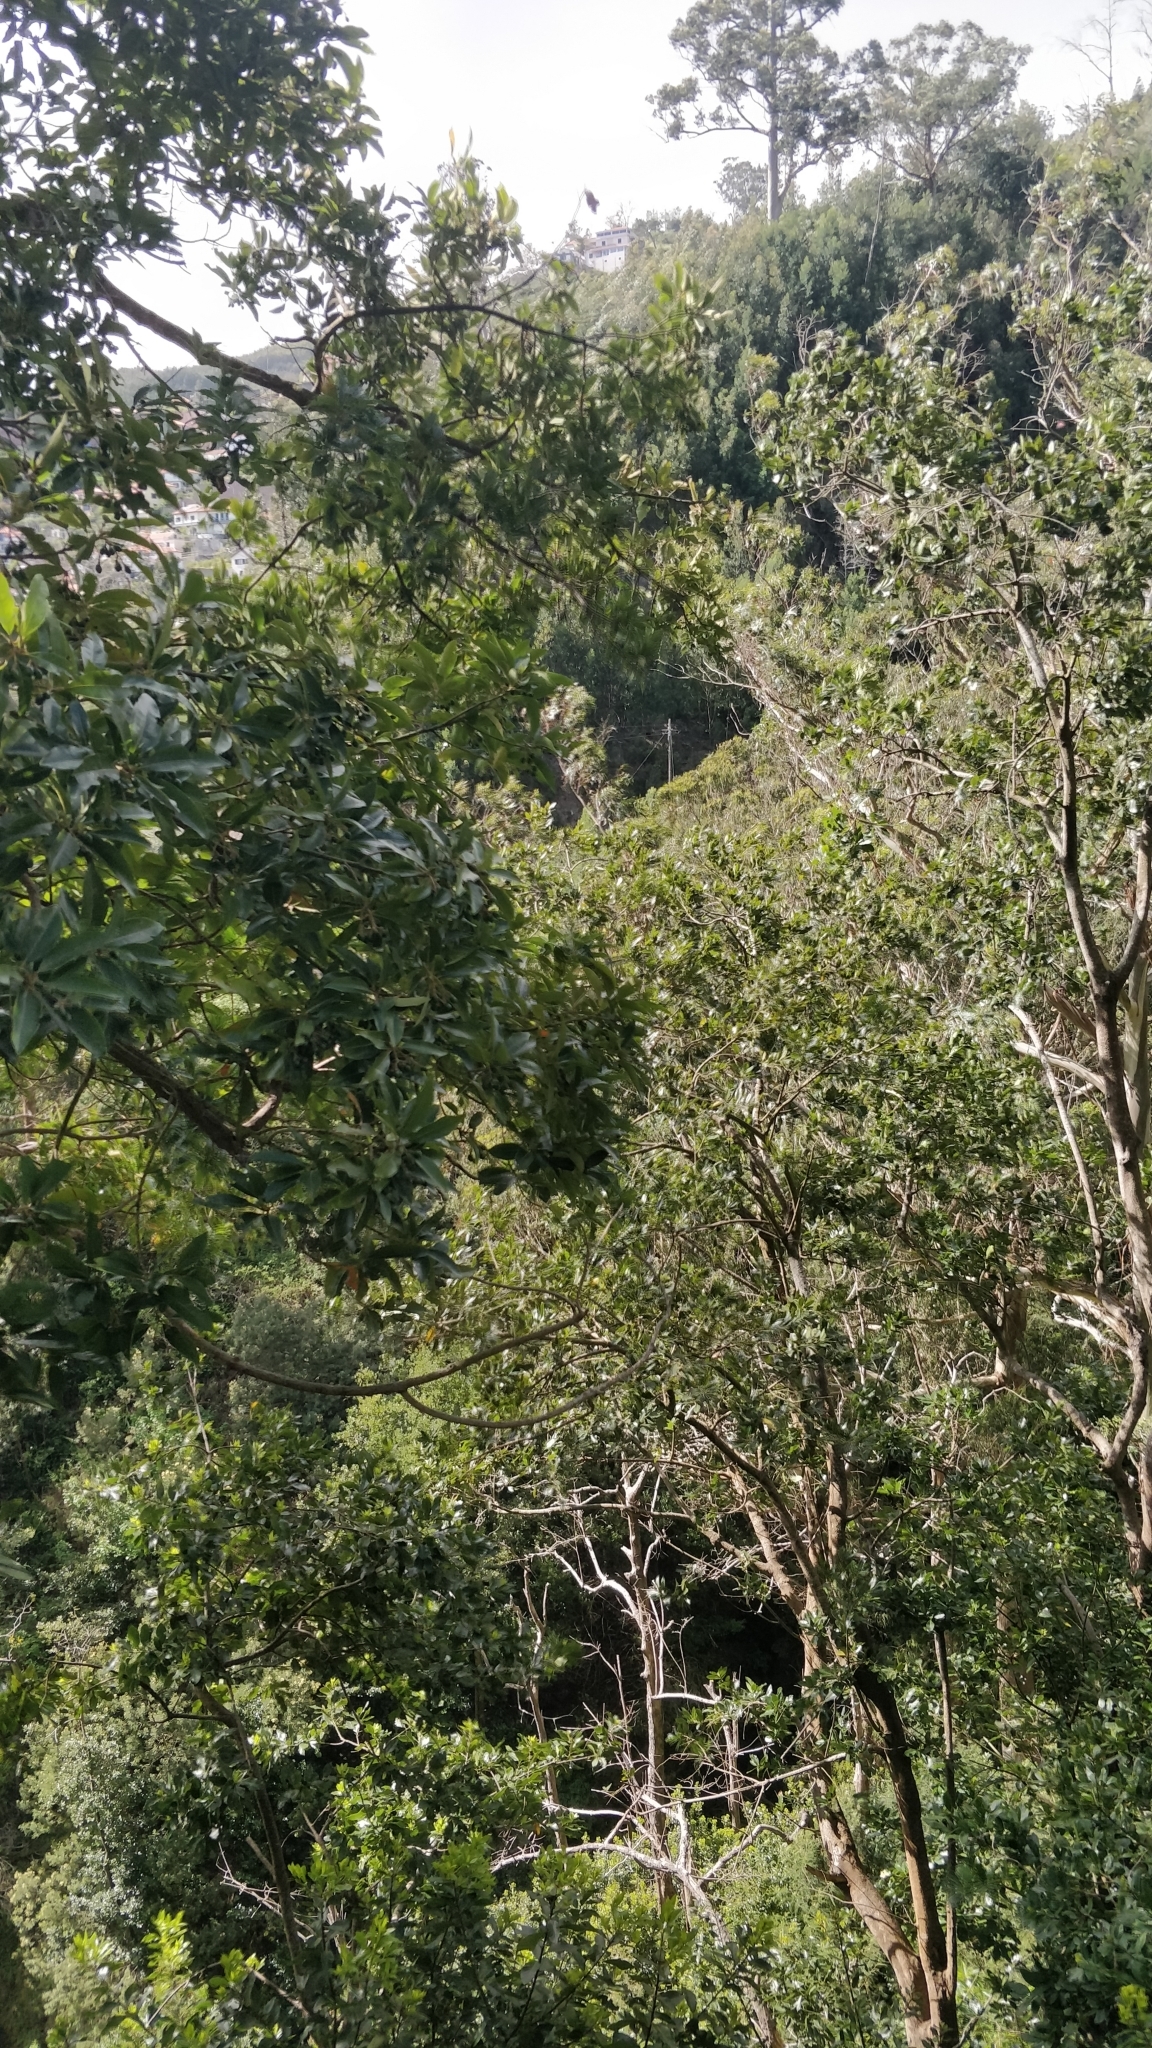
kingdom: Plantae
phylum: Tracheophyta
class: Magnoliopsida
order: Laurales
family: Lauraceae
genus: Persea
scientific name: Persea indica
